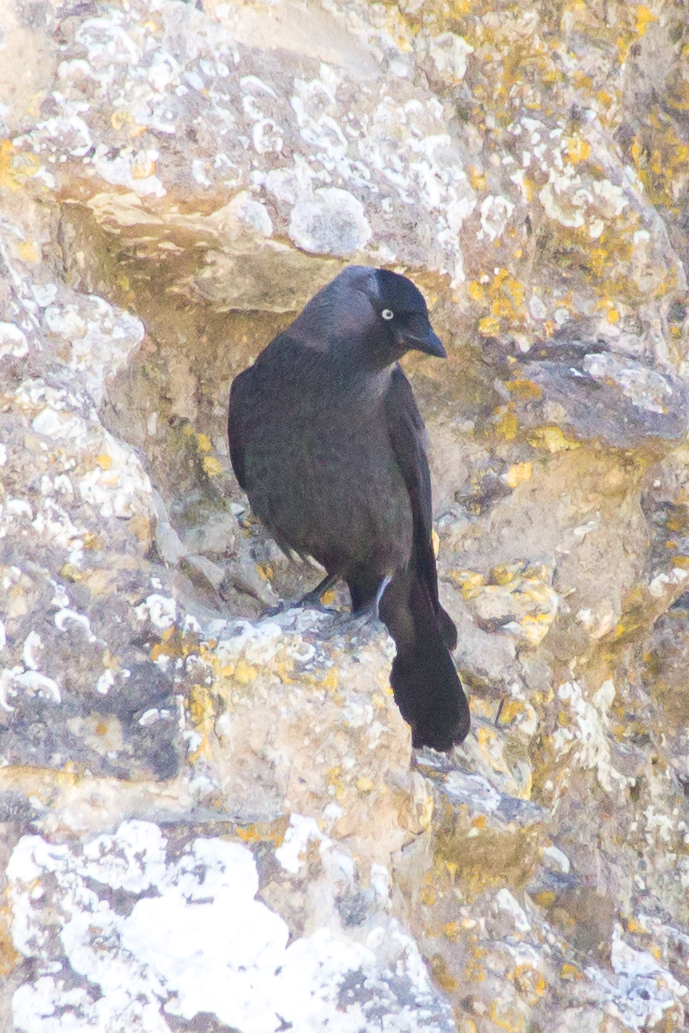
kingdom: Animalia
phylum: Chordata
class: Aves
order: Passeriformes
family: Corvidae
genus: Coloeus
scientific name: Coloeus monedula
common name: Western jackdaw
